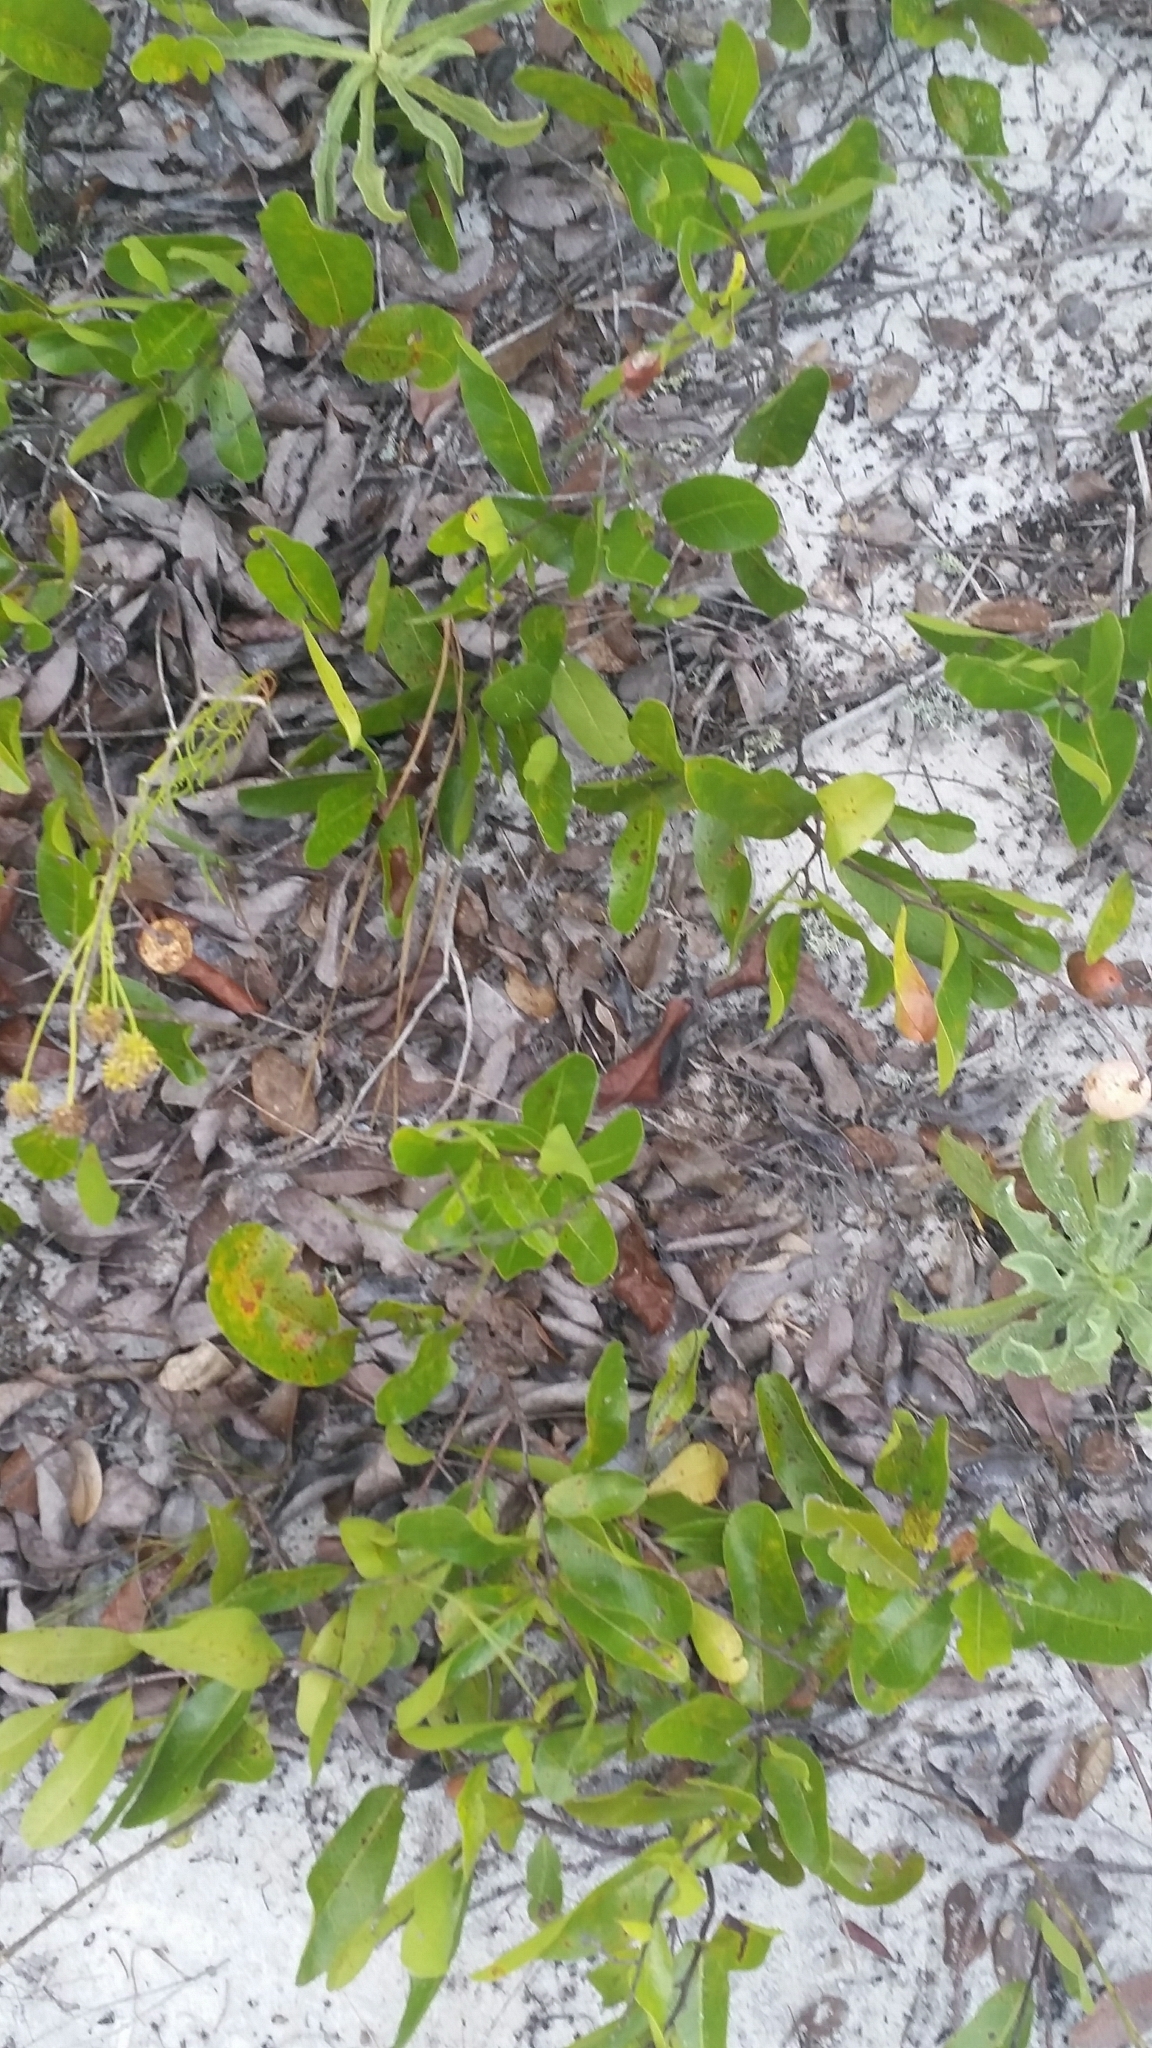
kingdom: Plantae
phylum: Tracheophyta
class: Magnoliopsida
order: Malpighiales
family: Chrysobalanaceae
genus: Geobalanus
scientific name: Geobalanus oblongifolius
